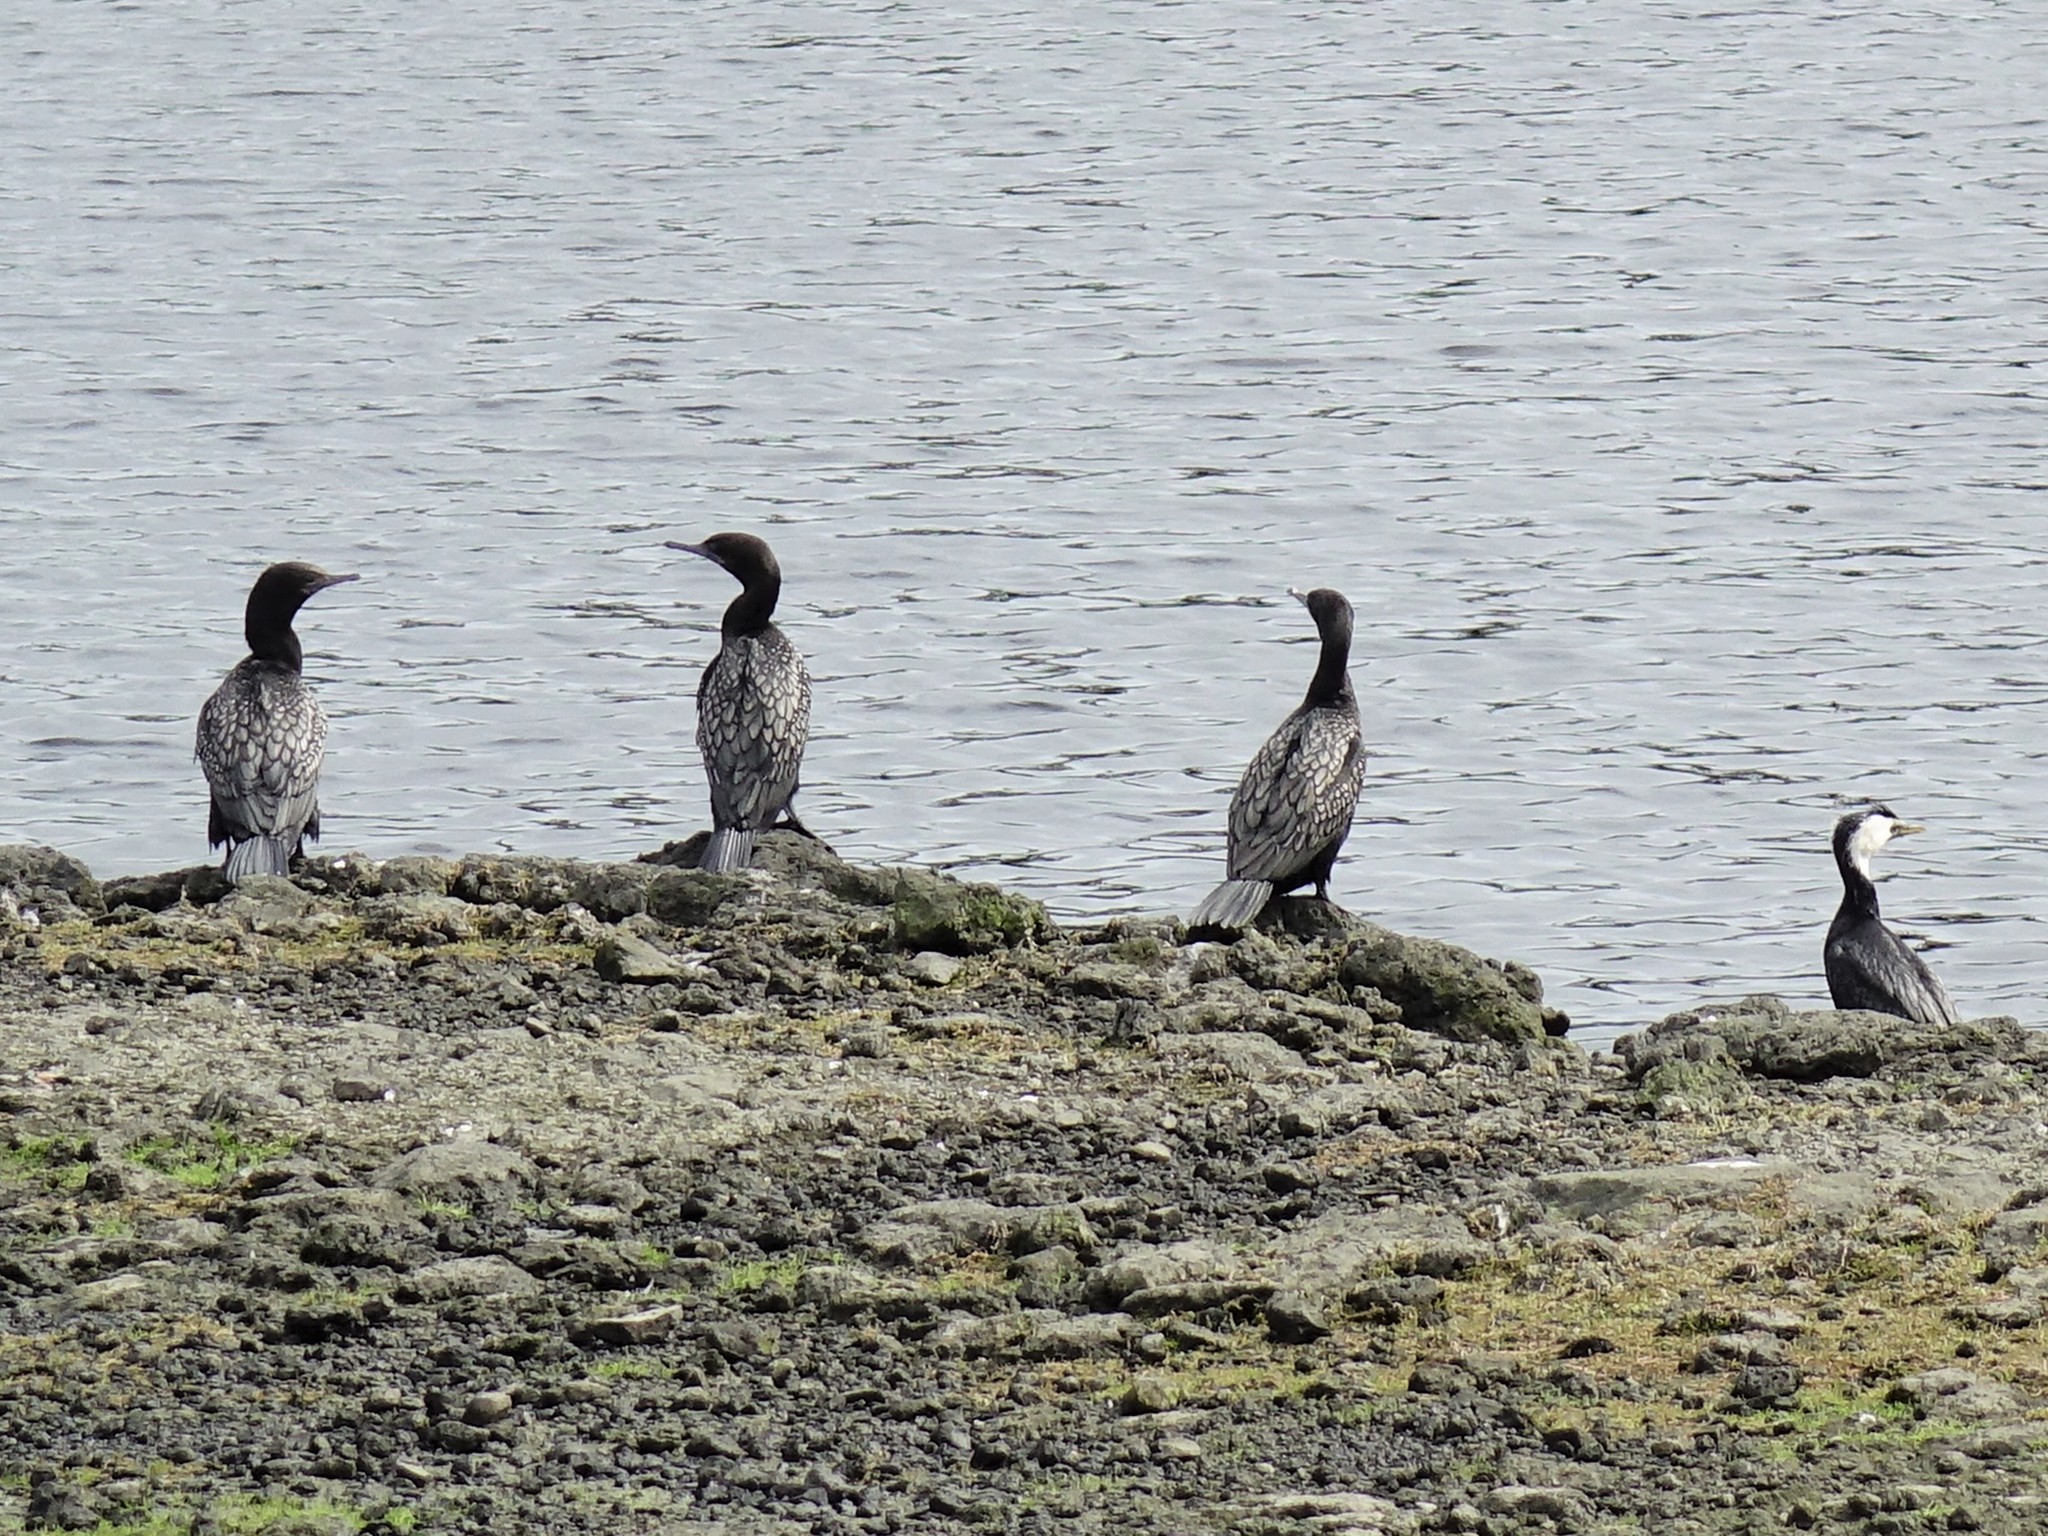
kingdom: Animalia
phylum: Chordata
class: Aves
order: Suliformes
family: Phalacrocoracidae
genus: Phalacrocorax
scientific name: Phalacrocorax sulcirostris
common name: Little black cormorant
